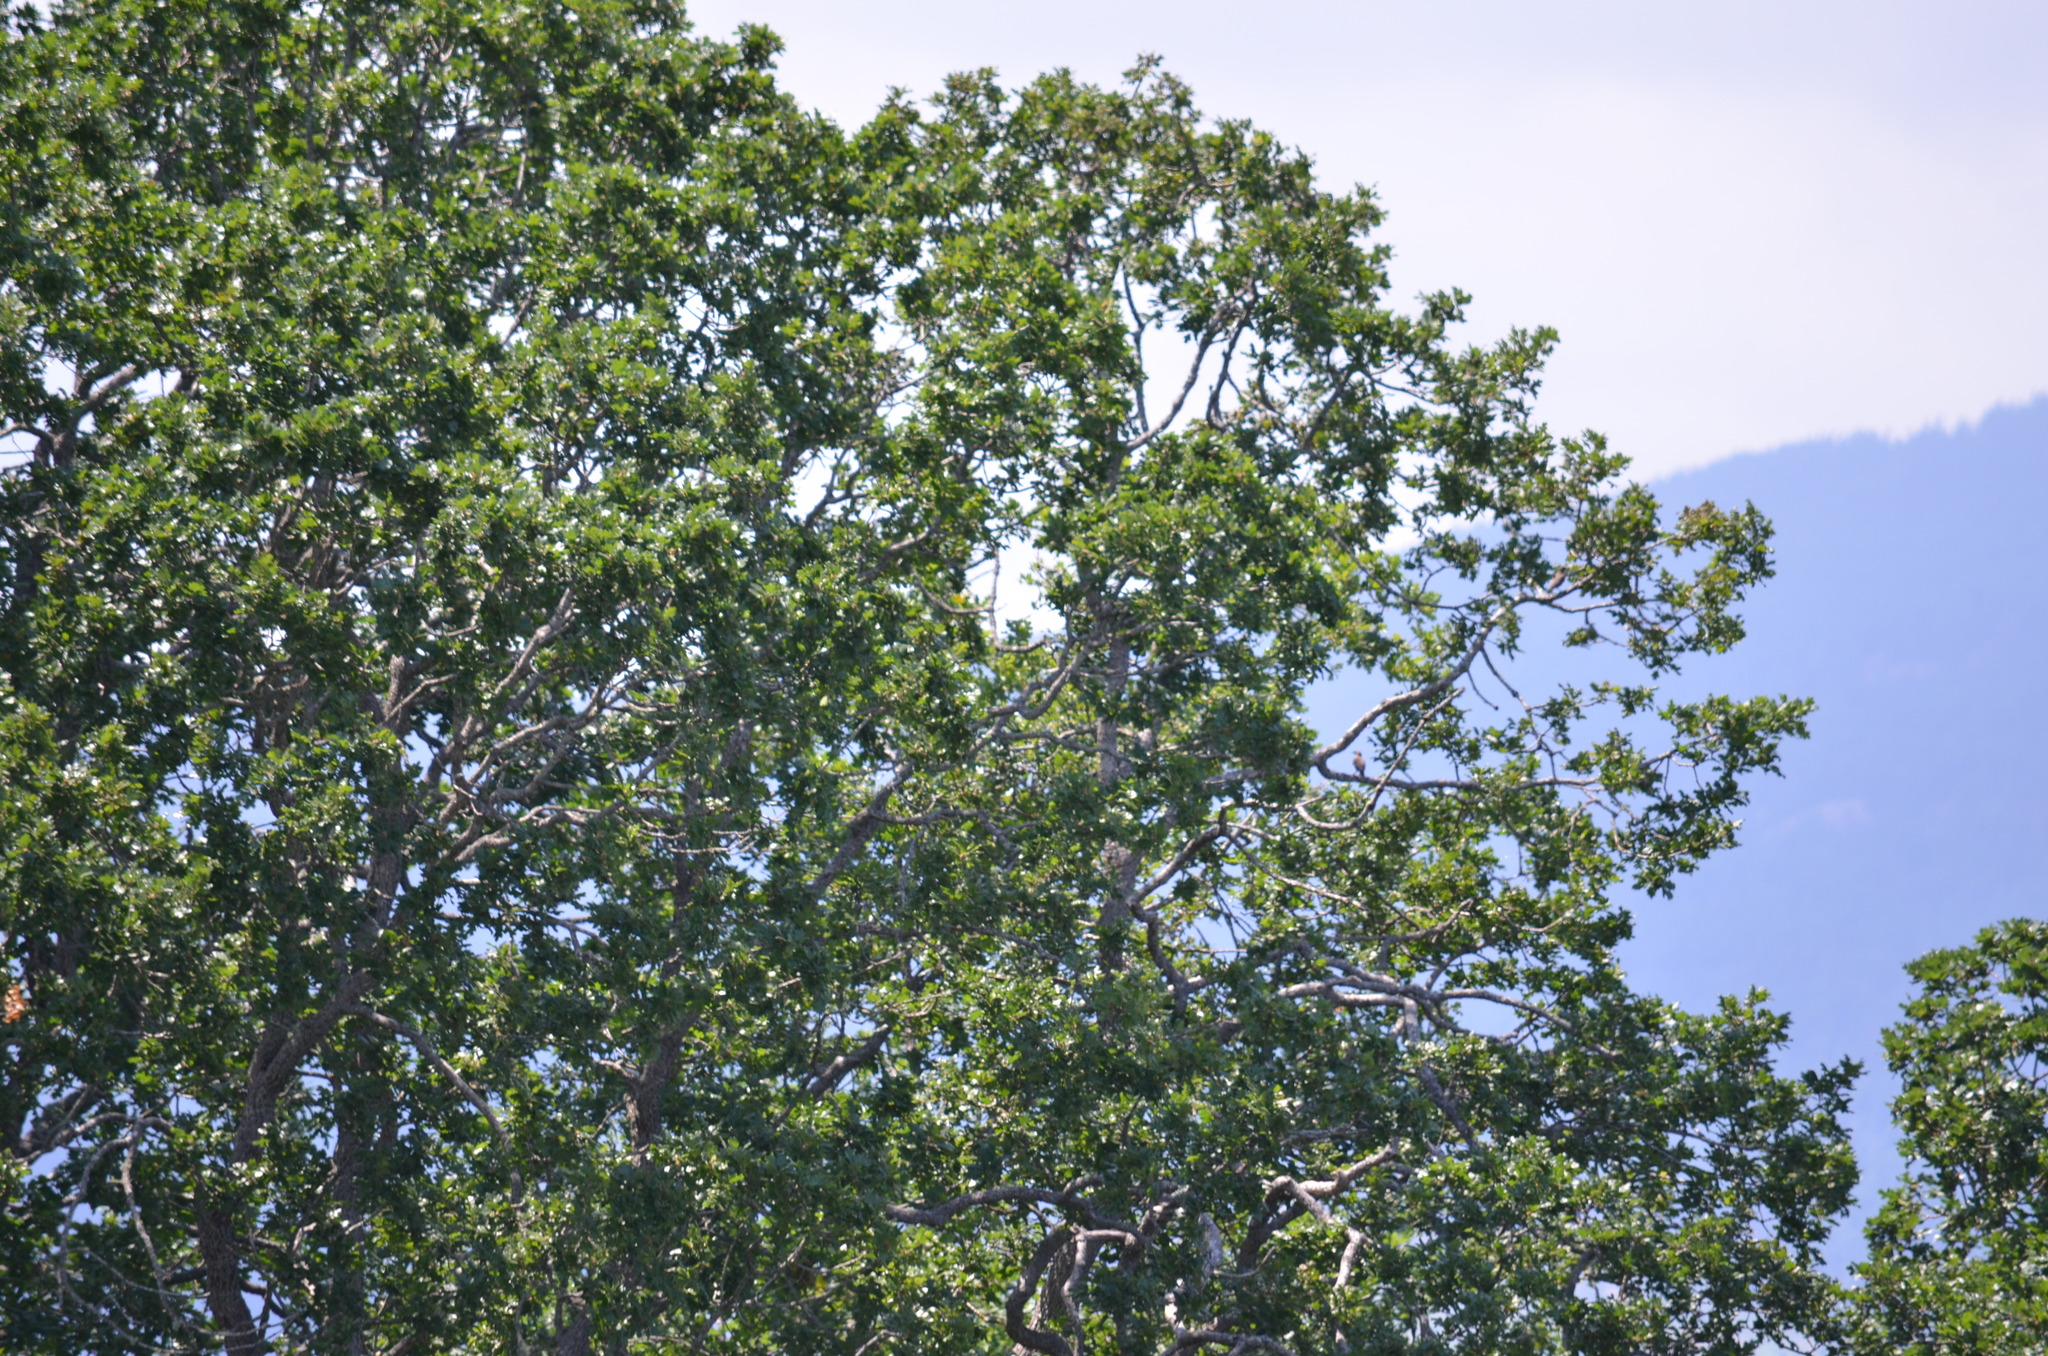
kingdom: Plantae
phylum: Tracheophyta
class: Magnoliopsida
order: Fagales
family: Fagaceae
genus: Quercus
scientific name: Quercus garryana
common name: Garry oak
